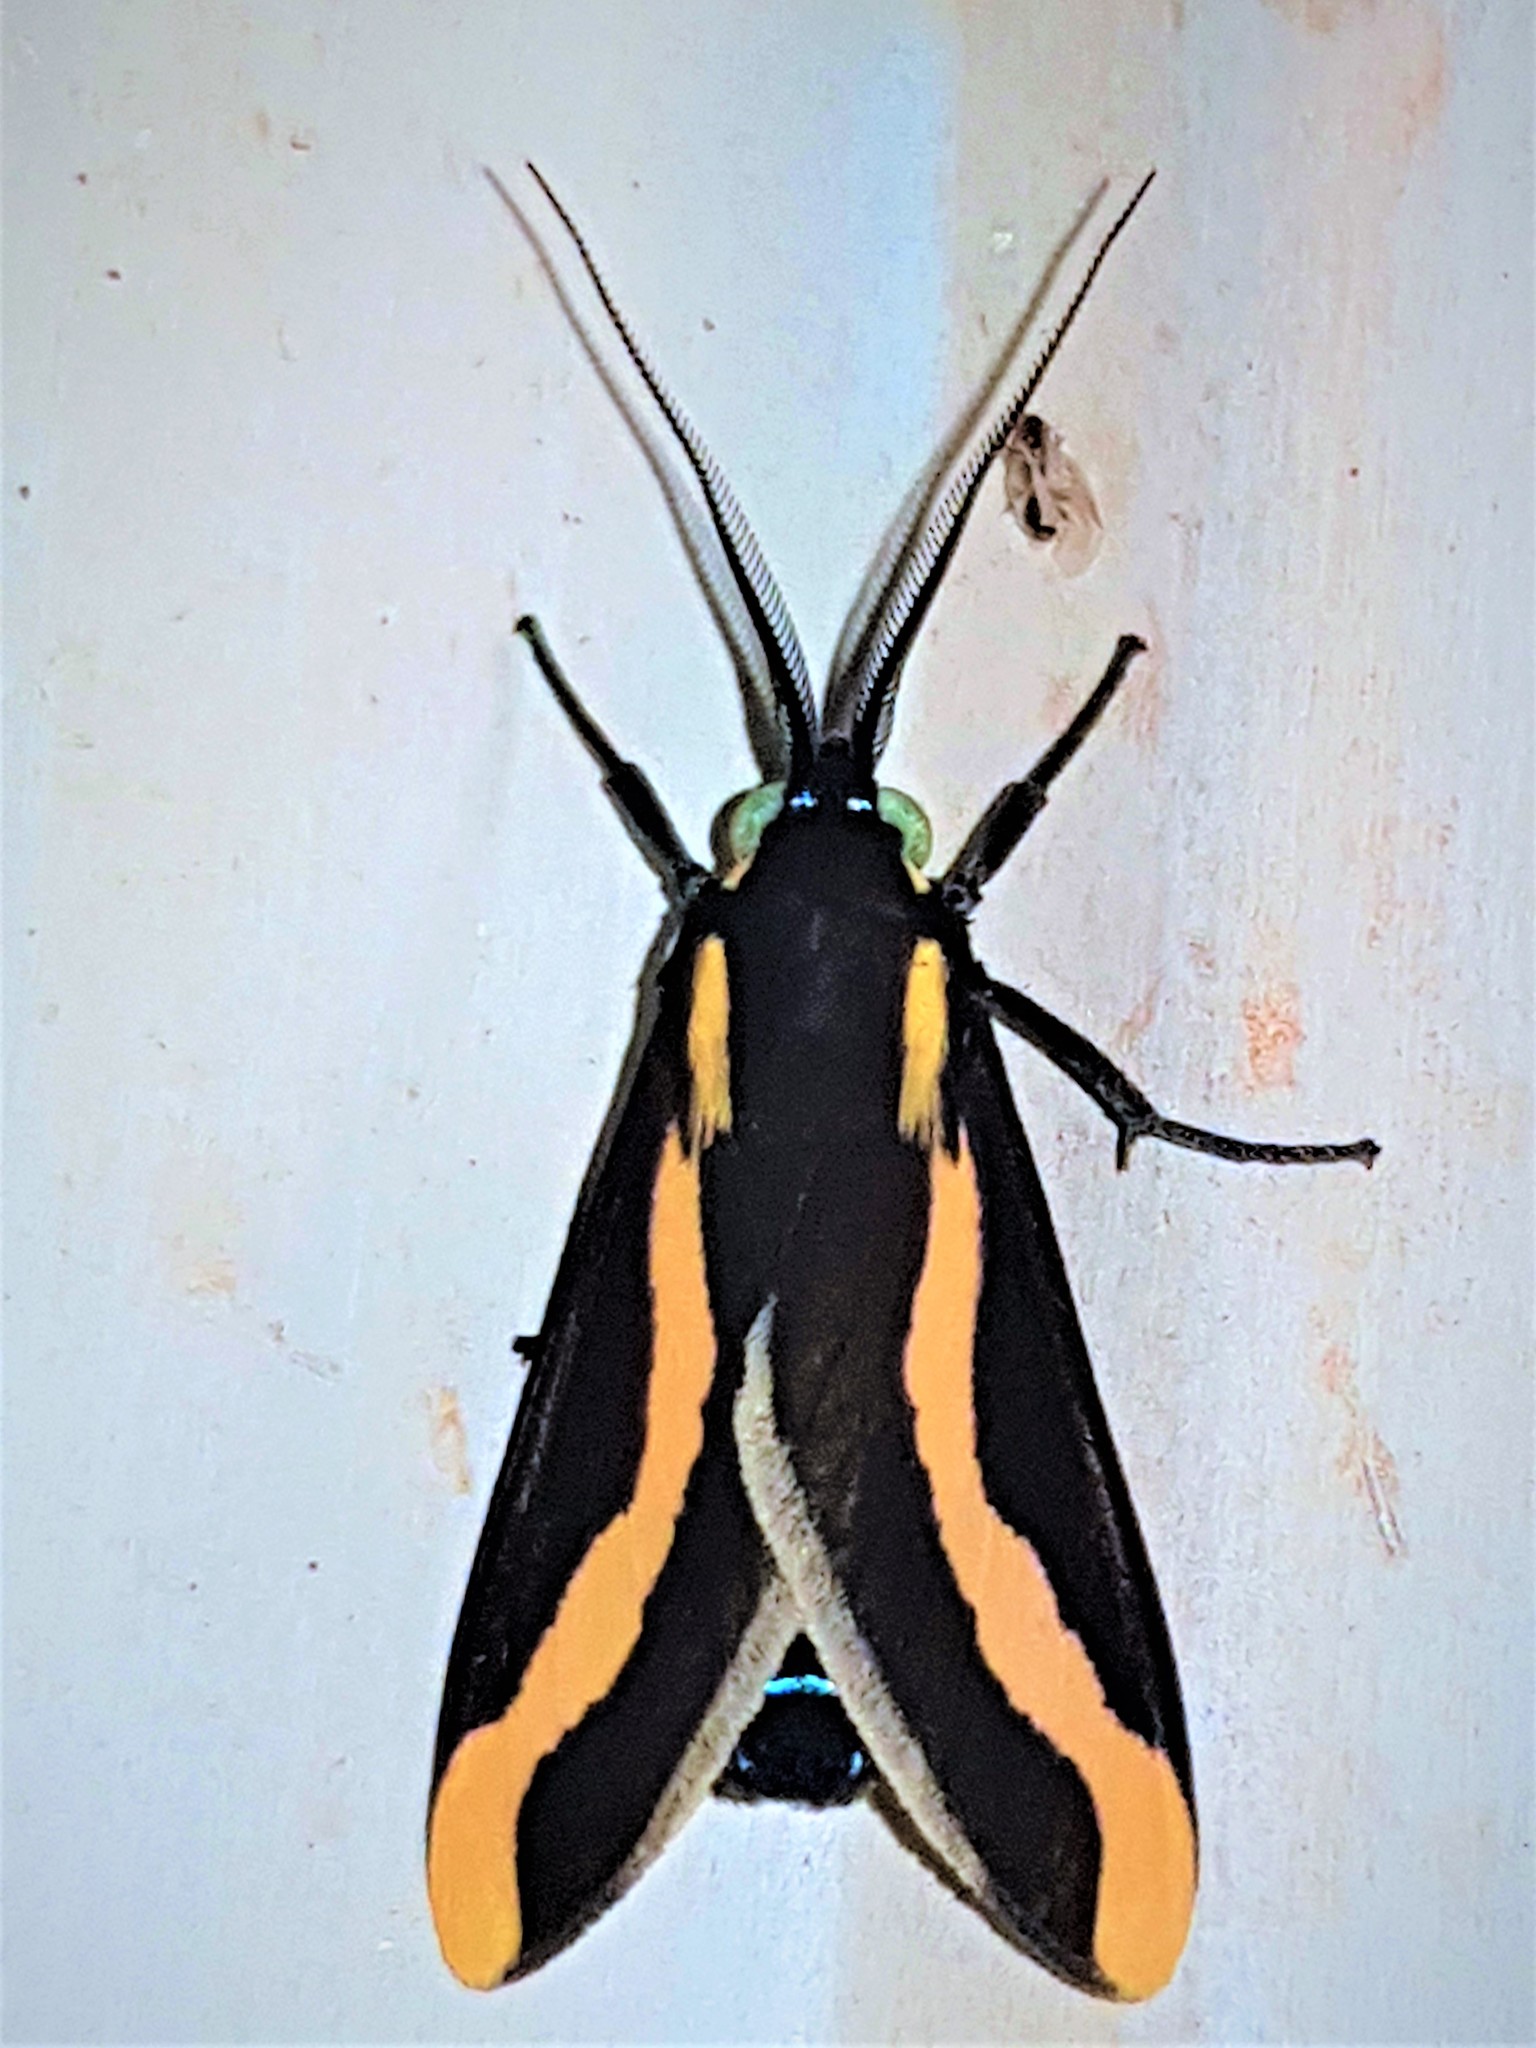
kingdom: Animalia
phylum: Arthropoda
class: Insecta
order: Lepidoptera
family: Erebidae
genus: Euplesia
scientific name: Euplesia sphingidea
